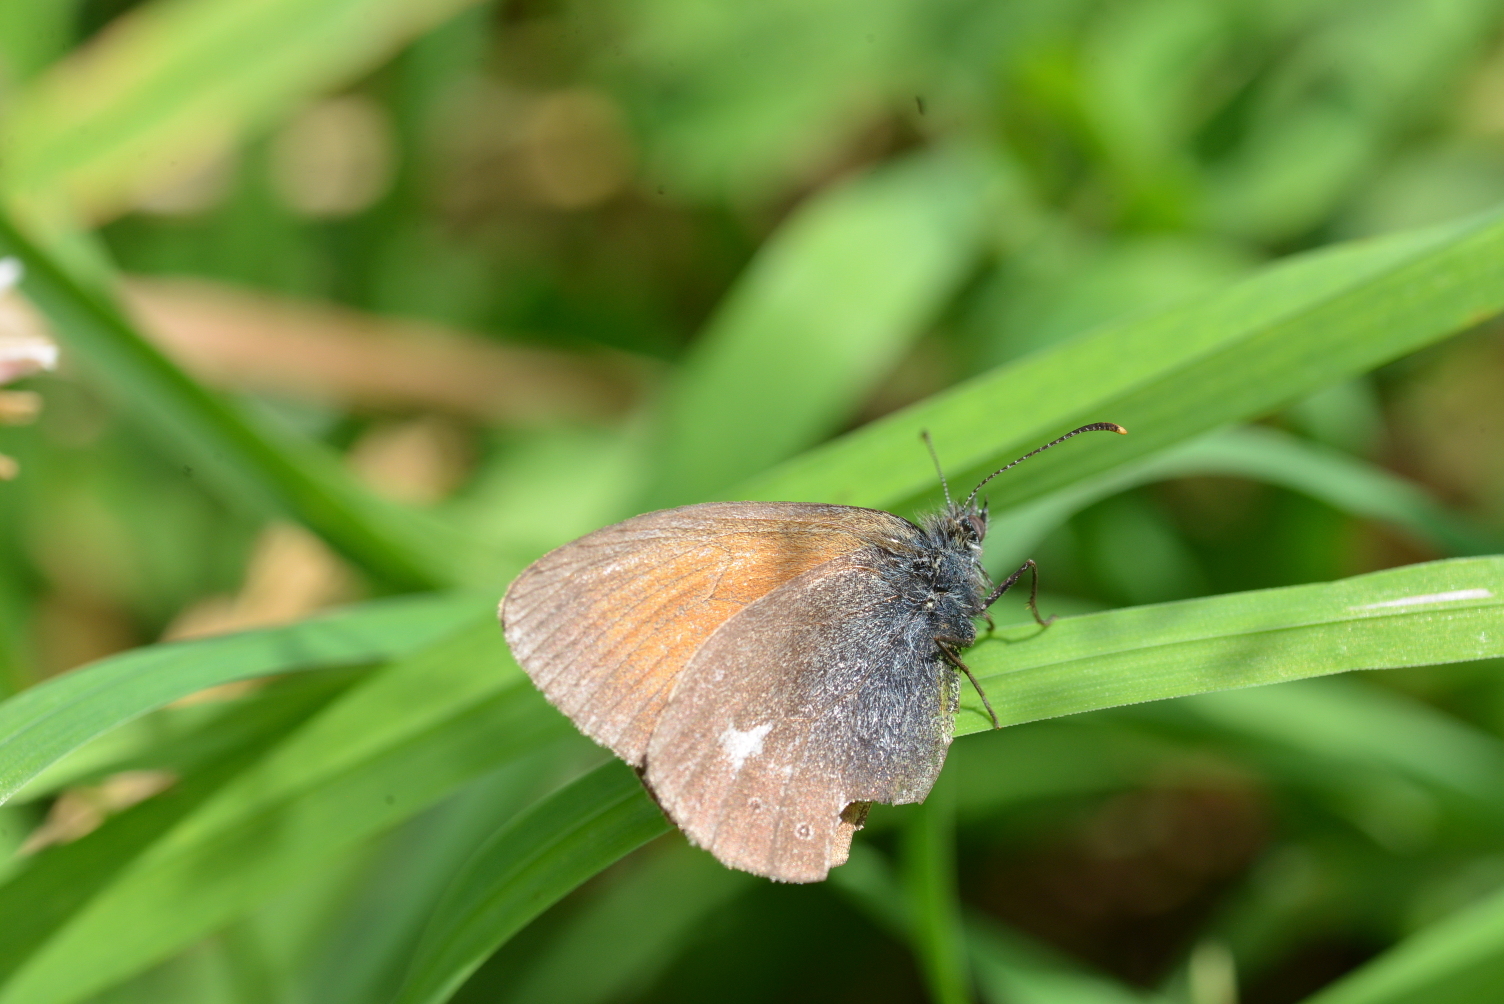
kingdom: Animalia
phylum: Arthropoda
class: Insecta
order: Lepidoptera
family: Nymphalidae
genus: Coenonympha
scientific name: Coenonympha iphis
